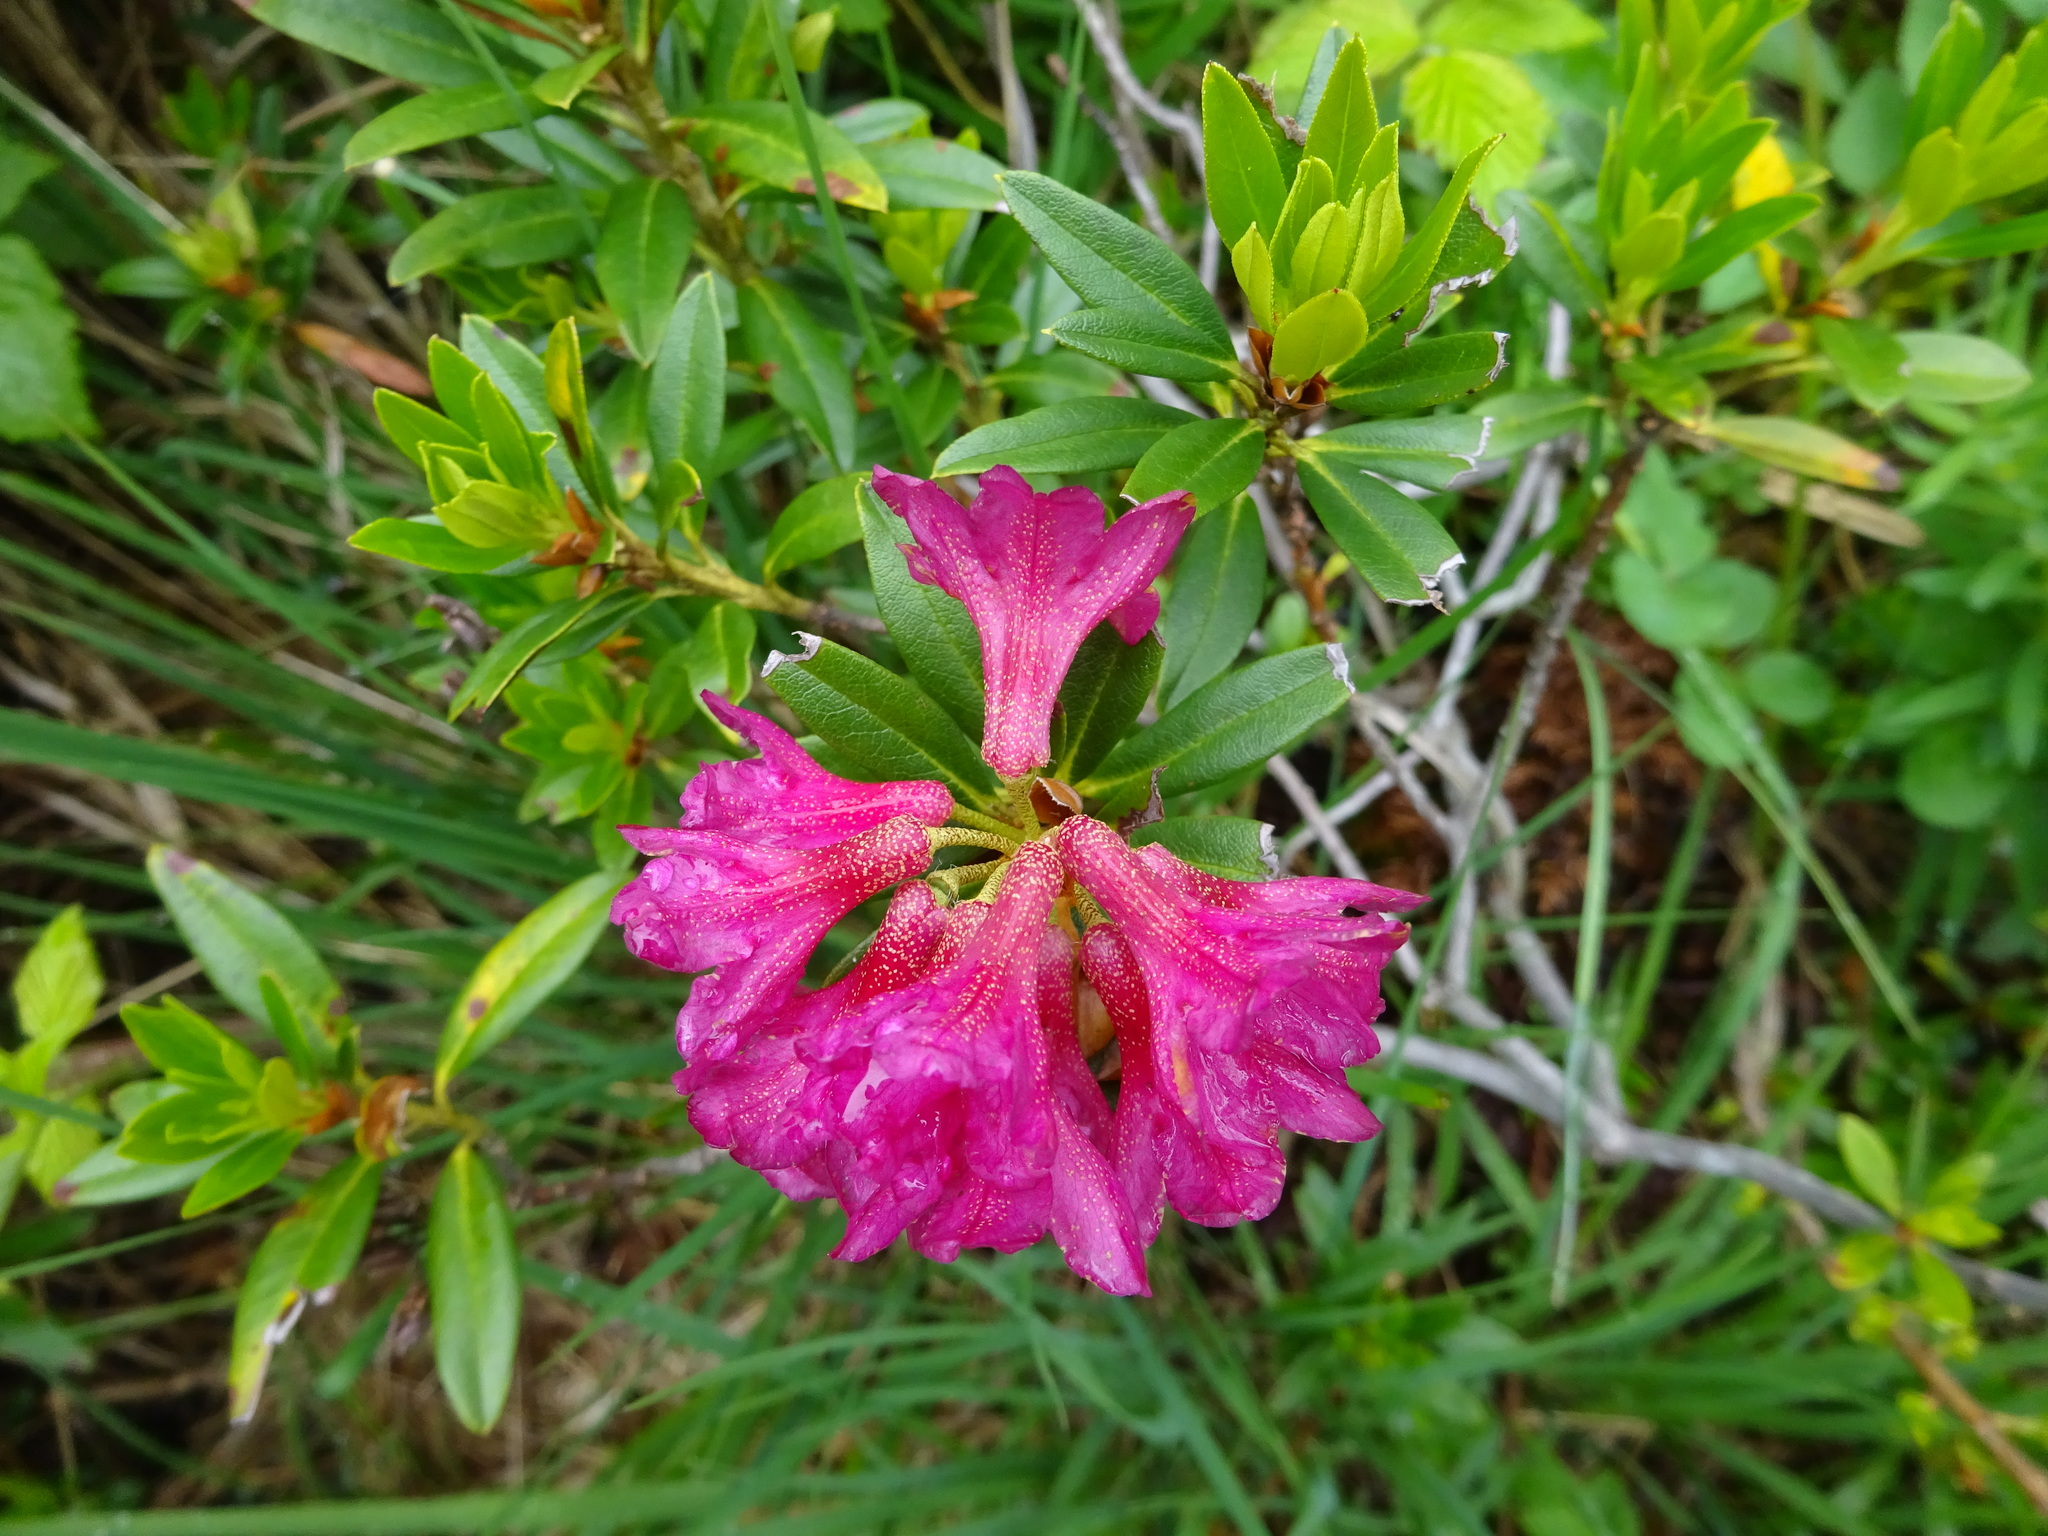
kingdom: Plantae
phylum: Tracheophyta
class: Magnoliopsida
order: Ericales
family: Ericaceae
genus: Rhododendron
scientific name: Rhododendron ferrugineum
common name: Alpenrose
